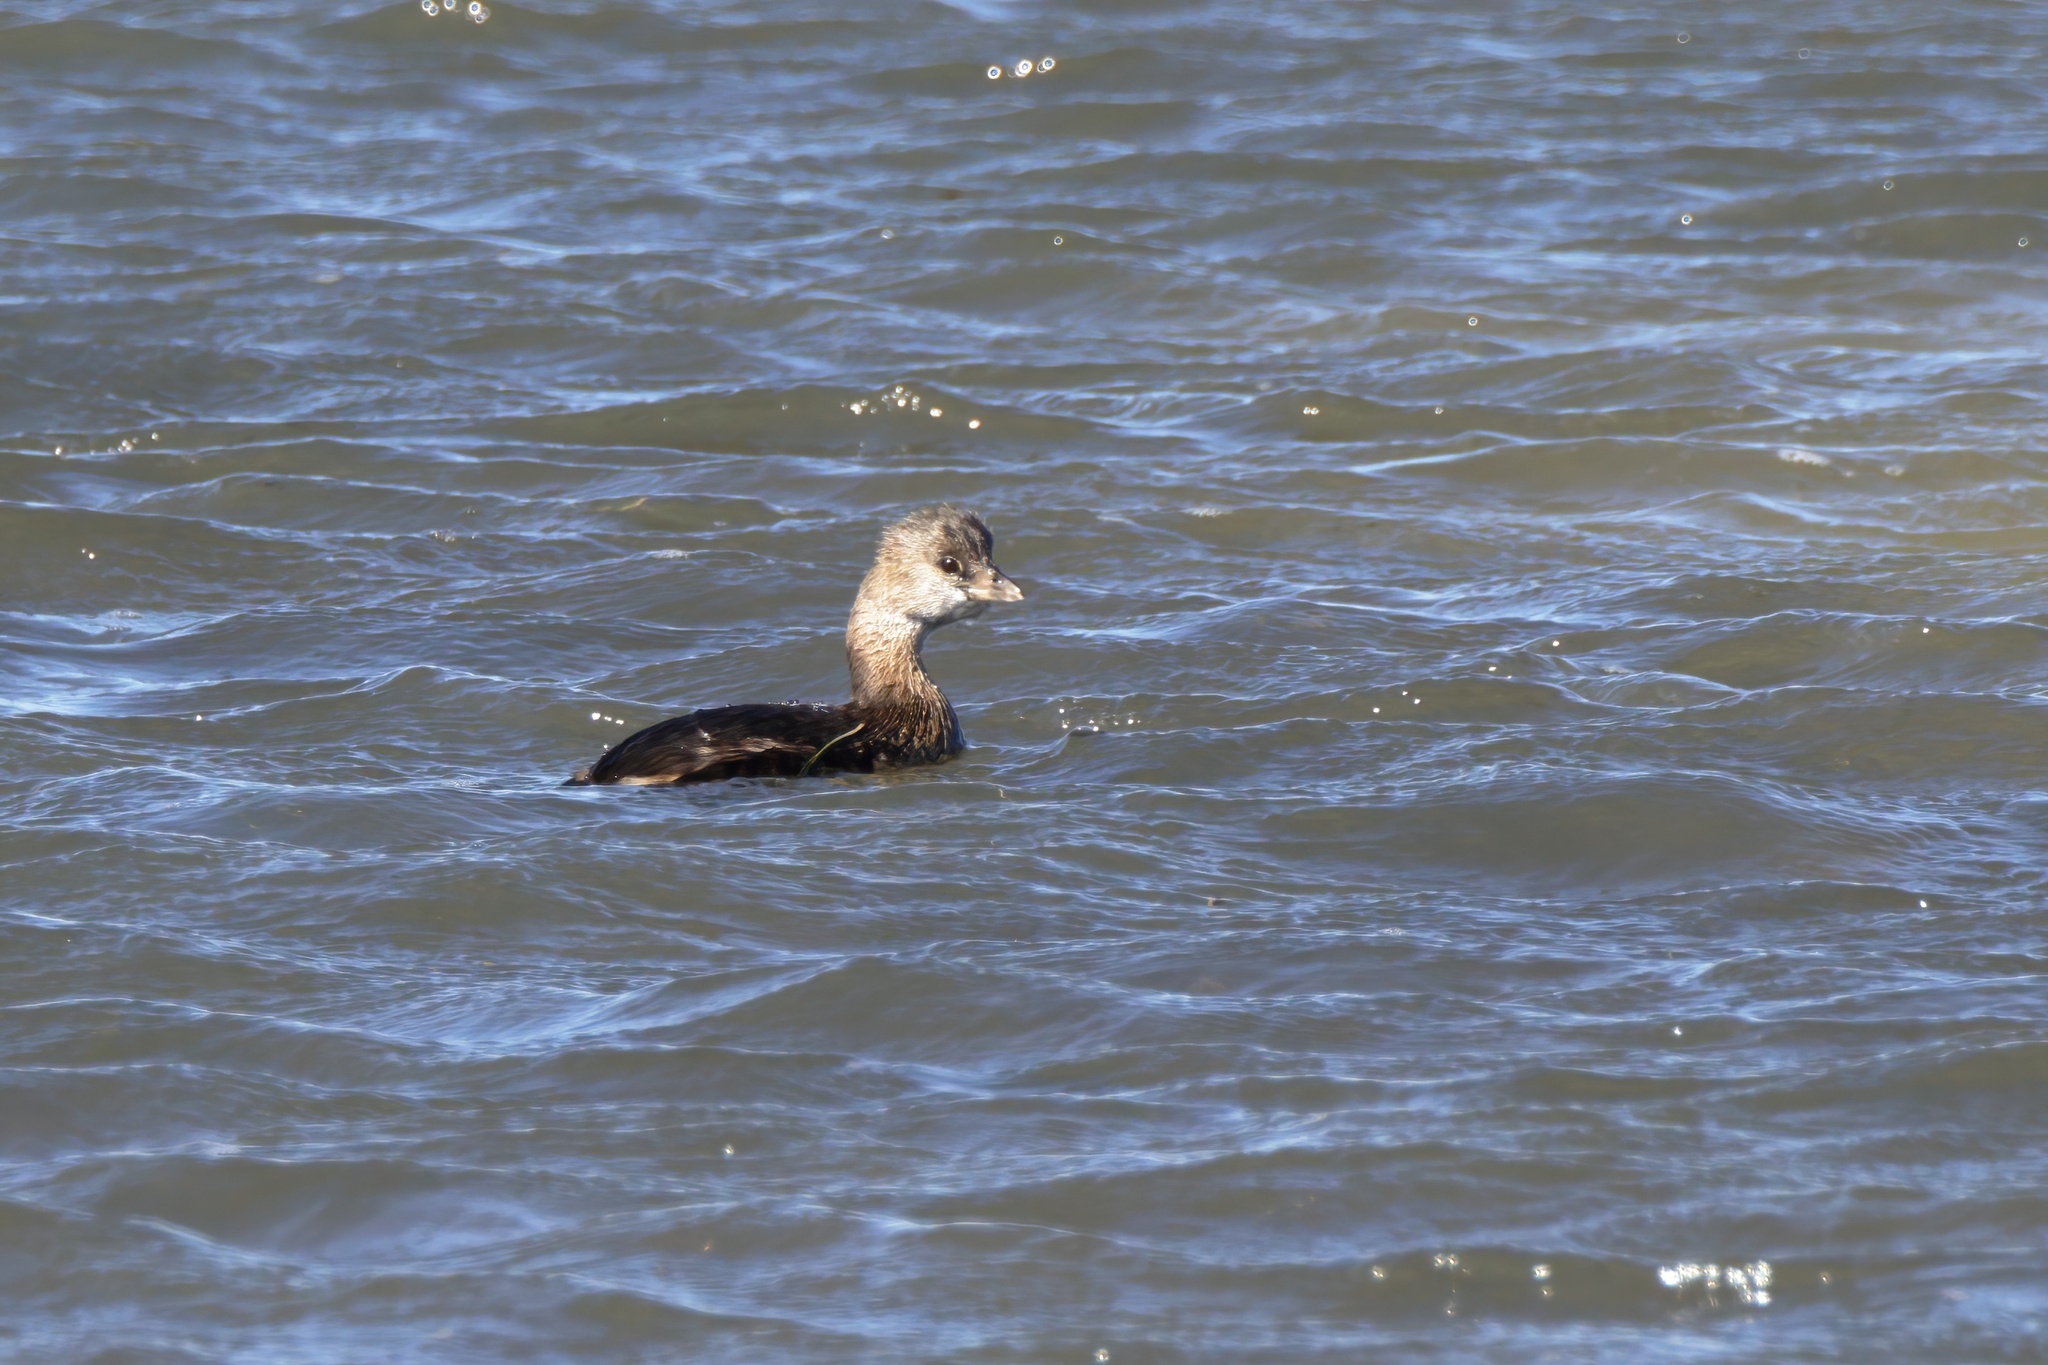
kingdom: Animalia
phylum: Chordata
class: Aves
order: Podicipediformes
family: Podicipedidae
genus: Podilymbus
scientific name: Podilymbus podiceps
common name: Pied-billed grebe
